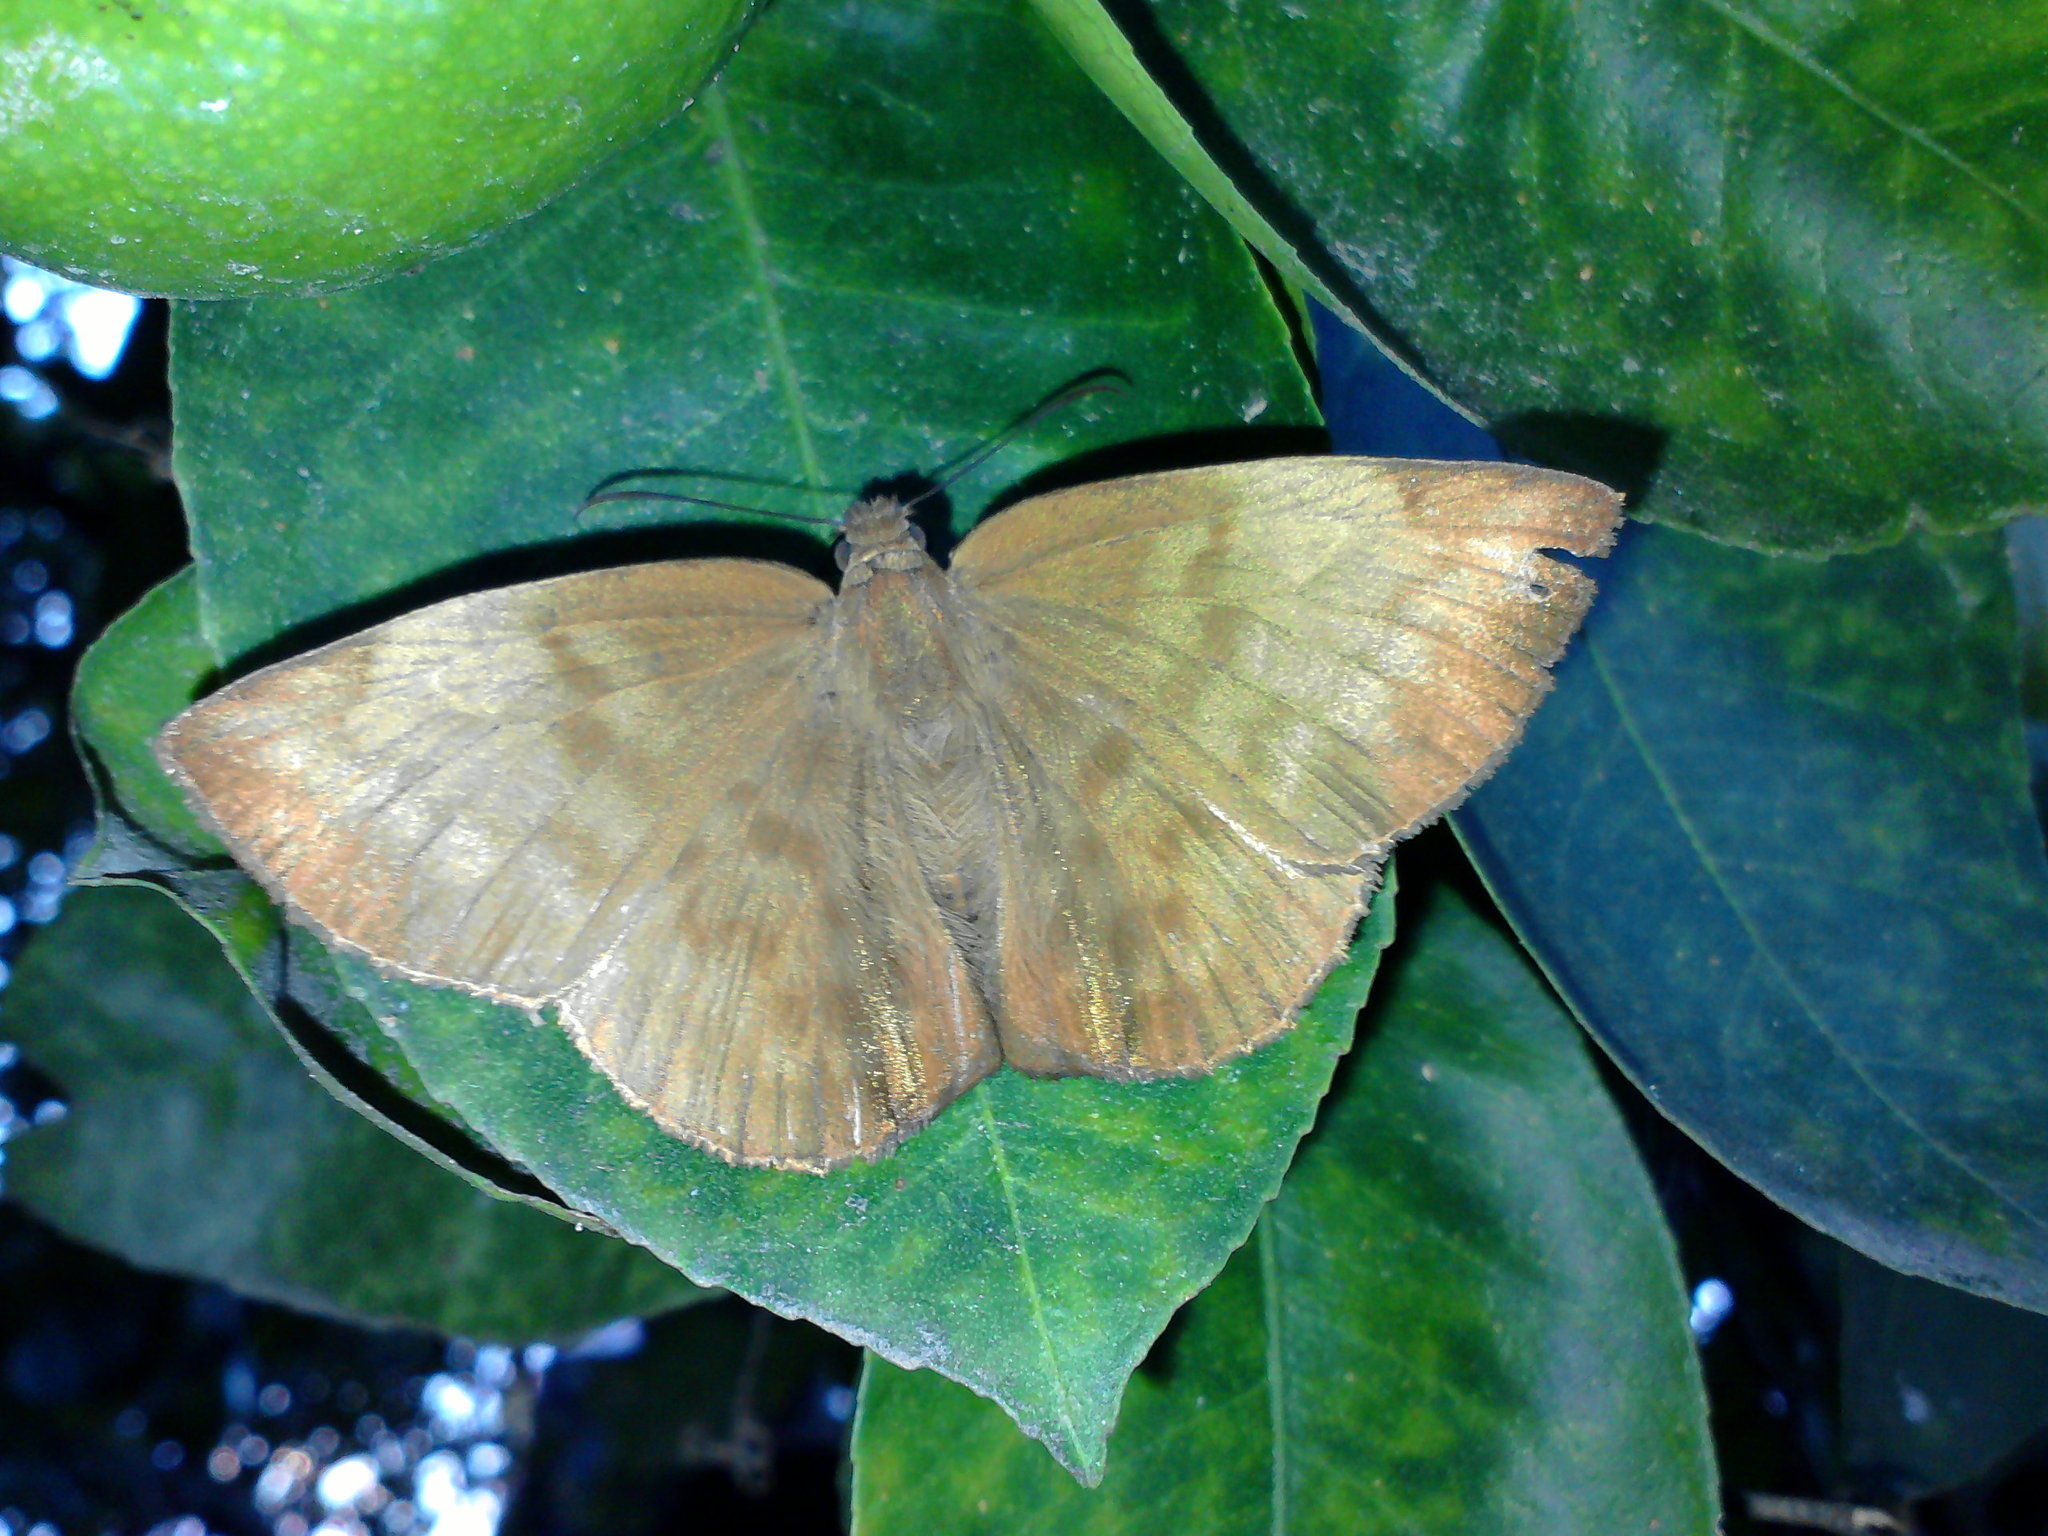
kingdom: Animalia
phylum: Arthropoda
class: Insecta
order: Lepidoptera
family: Hesperiidae
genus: Achlyodes
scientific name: Achlyodes pallida
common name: Pale sicklewing
